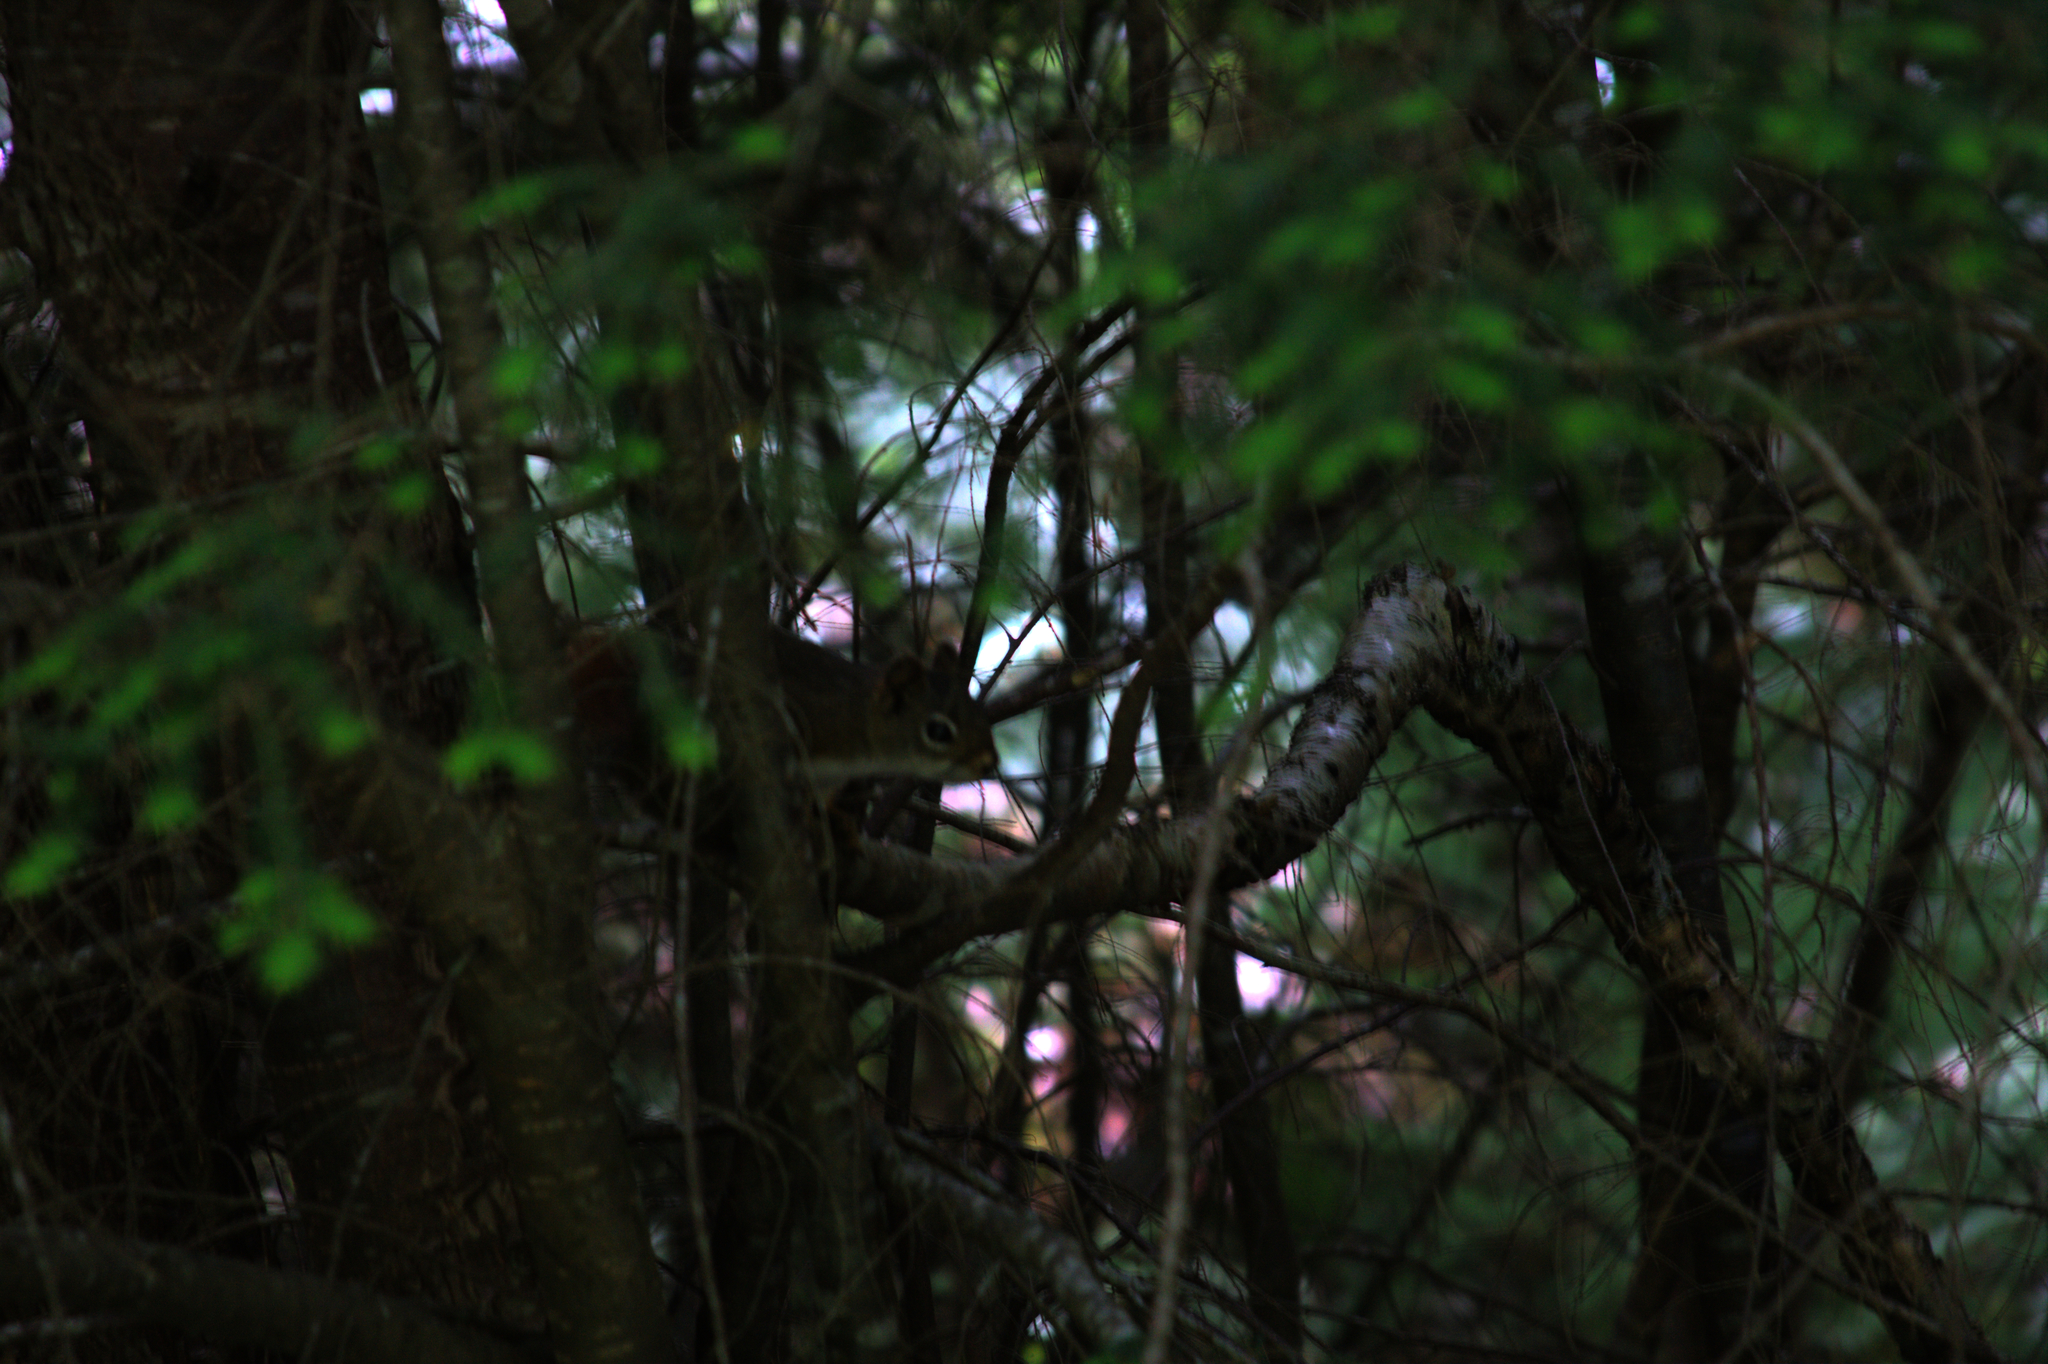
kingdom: Animalia
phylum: Chordata
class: Mammalia
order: Rodentia
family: Sciuridae
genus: Tamiasciurus
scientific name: Tamiasciurus hudsonicus
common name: Red squirrel
